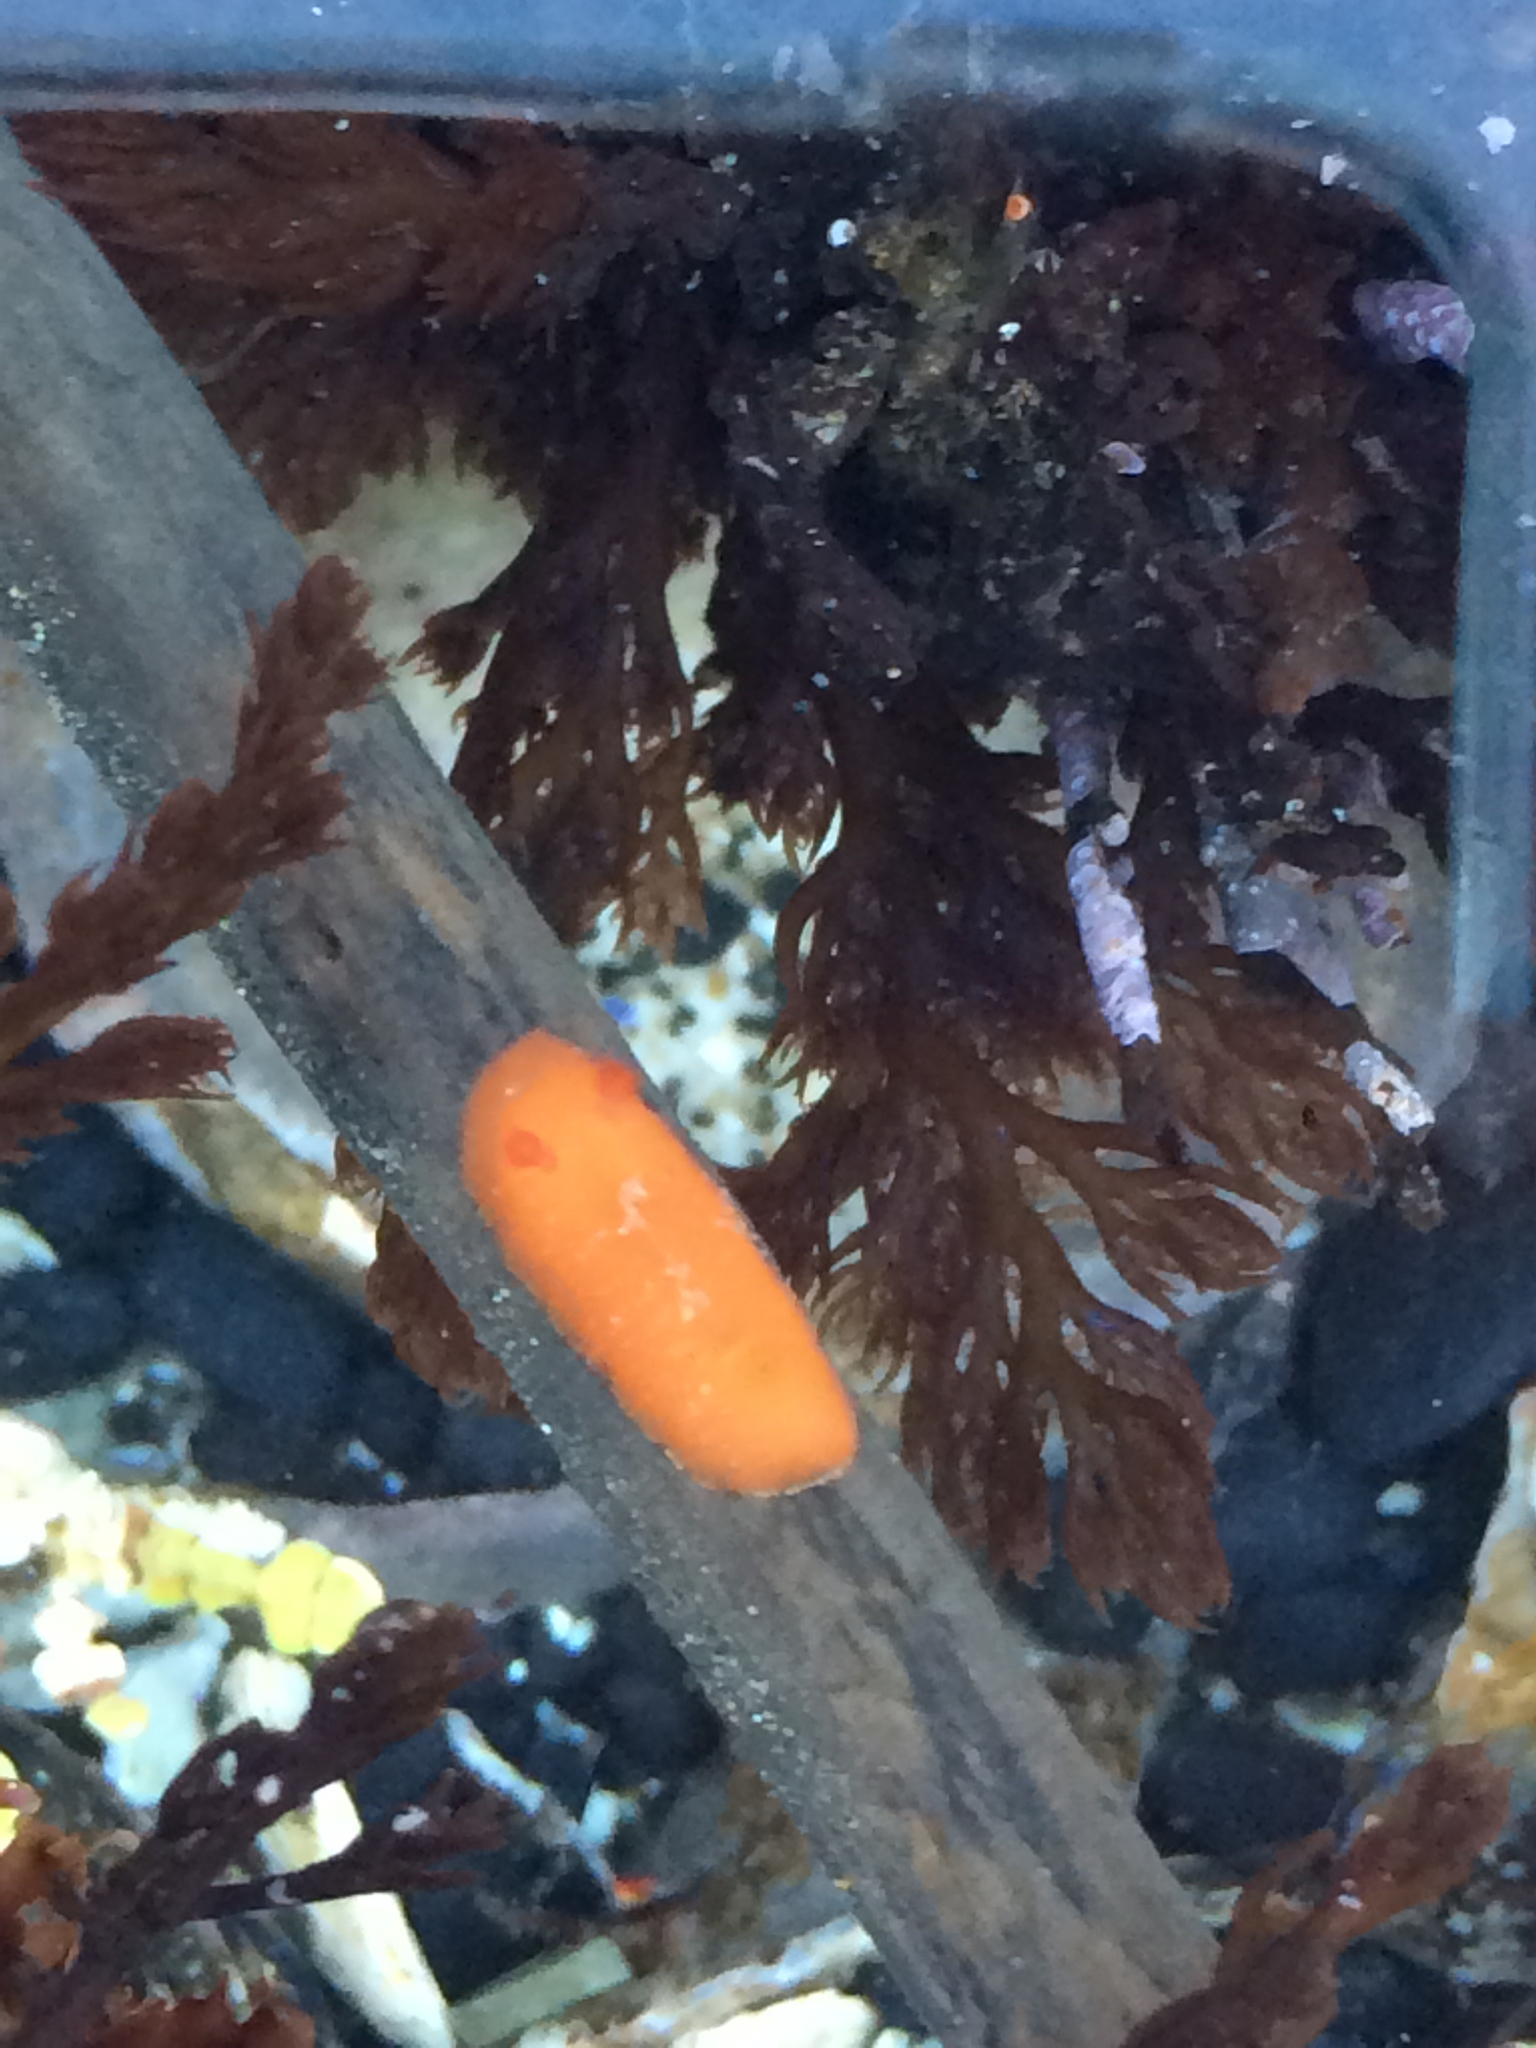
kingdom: Animalia
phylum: Mollusca
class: Gastropoda
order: Nudibranchia
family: Discodorididae
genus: Rostanga
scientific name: Rostanga pulchra
